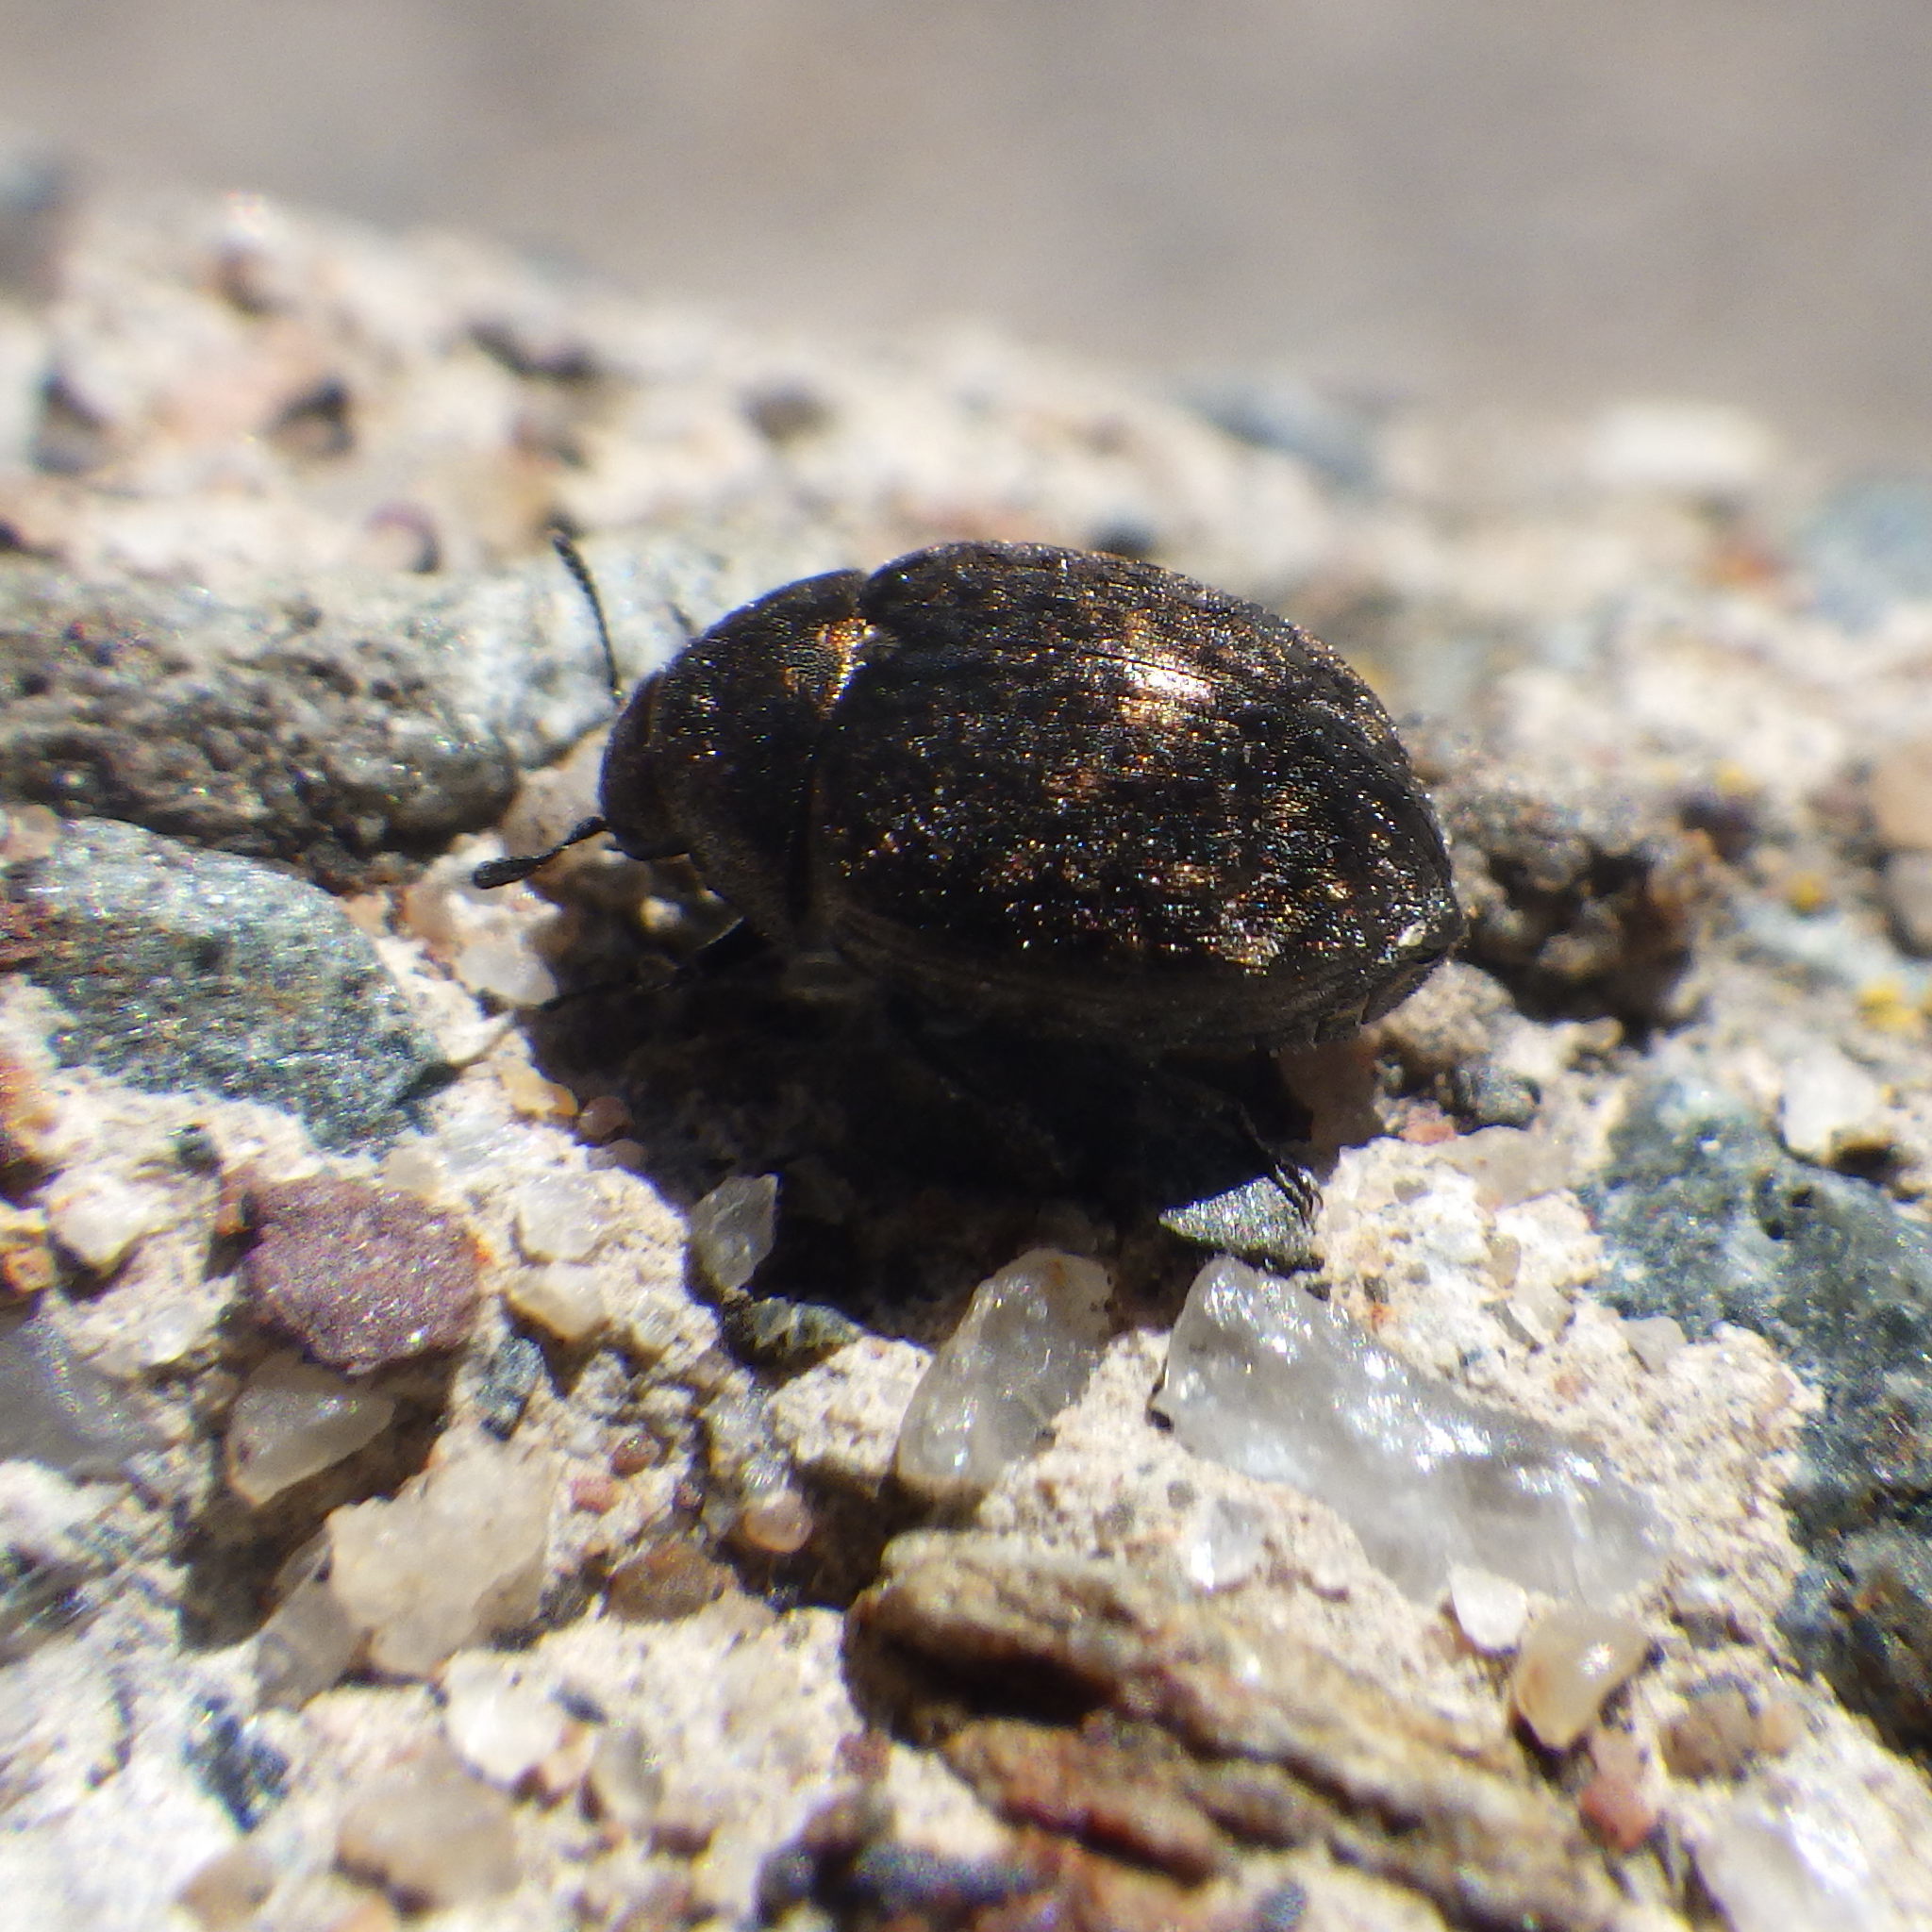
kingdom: Animalia
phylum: Arthropoda
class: Insecta
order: Coleoptera
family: Byrrhidae
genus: Cytilus
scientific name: Cytilus alternatus
